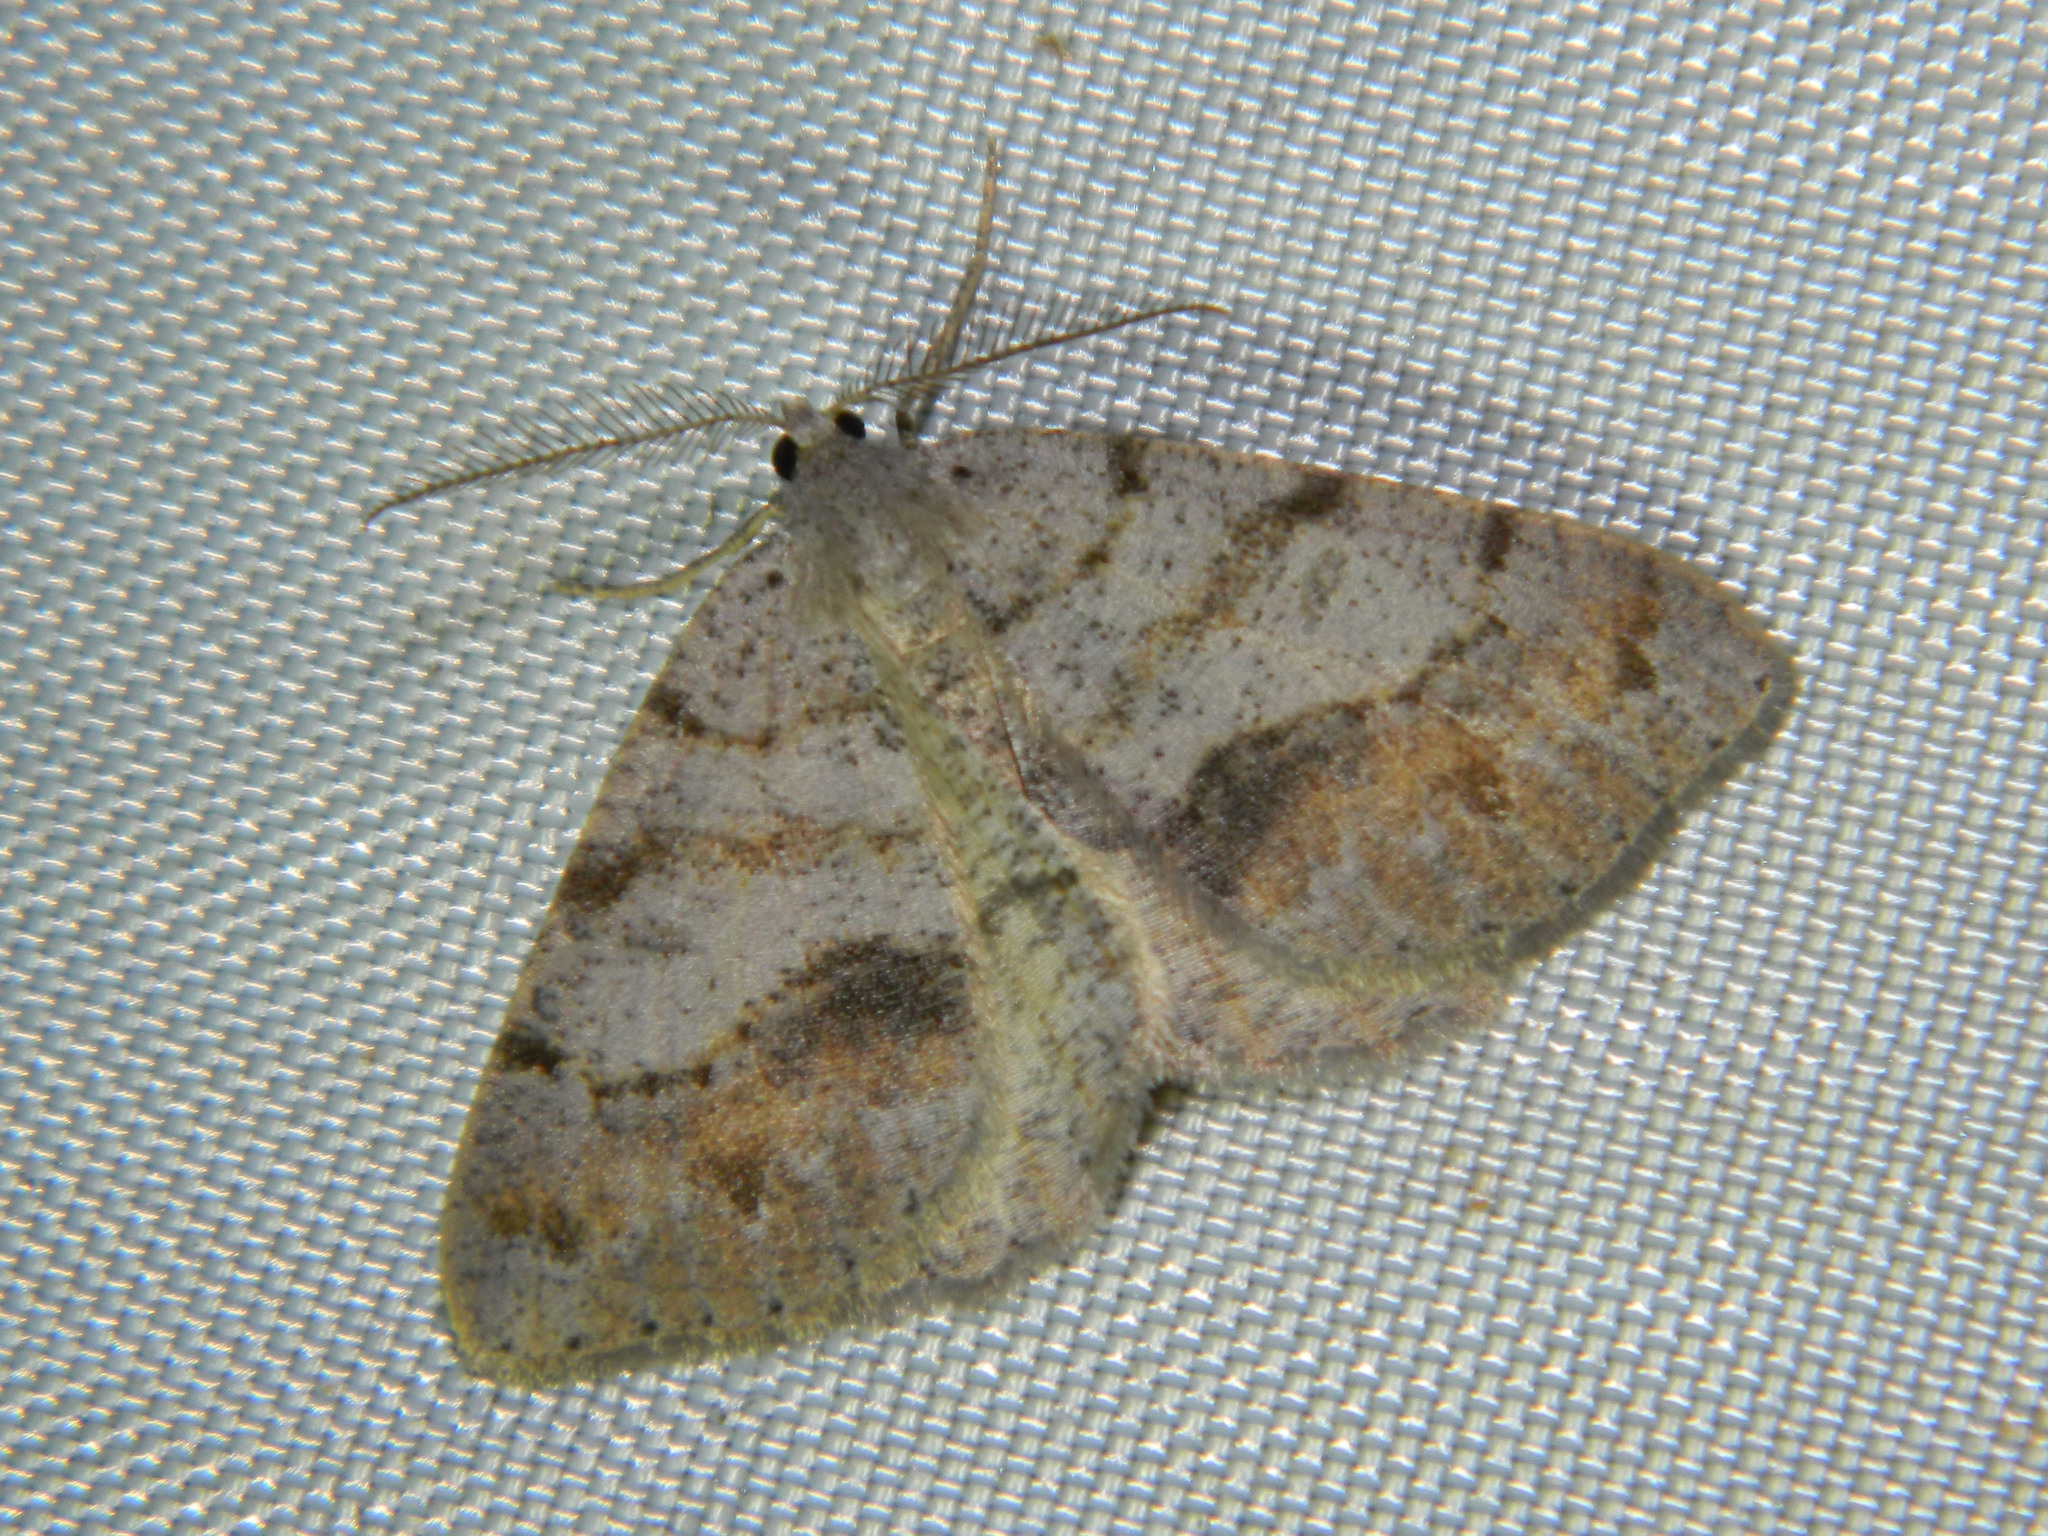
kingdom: Animalia
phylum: Arthropoda
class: Insecta
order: Lepidoptera
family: Geometridae
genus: Macaria
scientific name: Macaria loricaria
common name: False bruce spanworm
